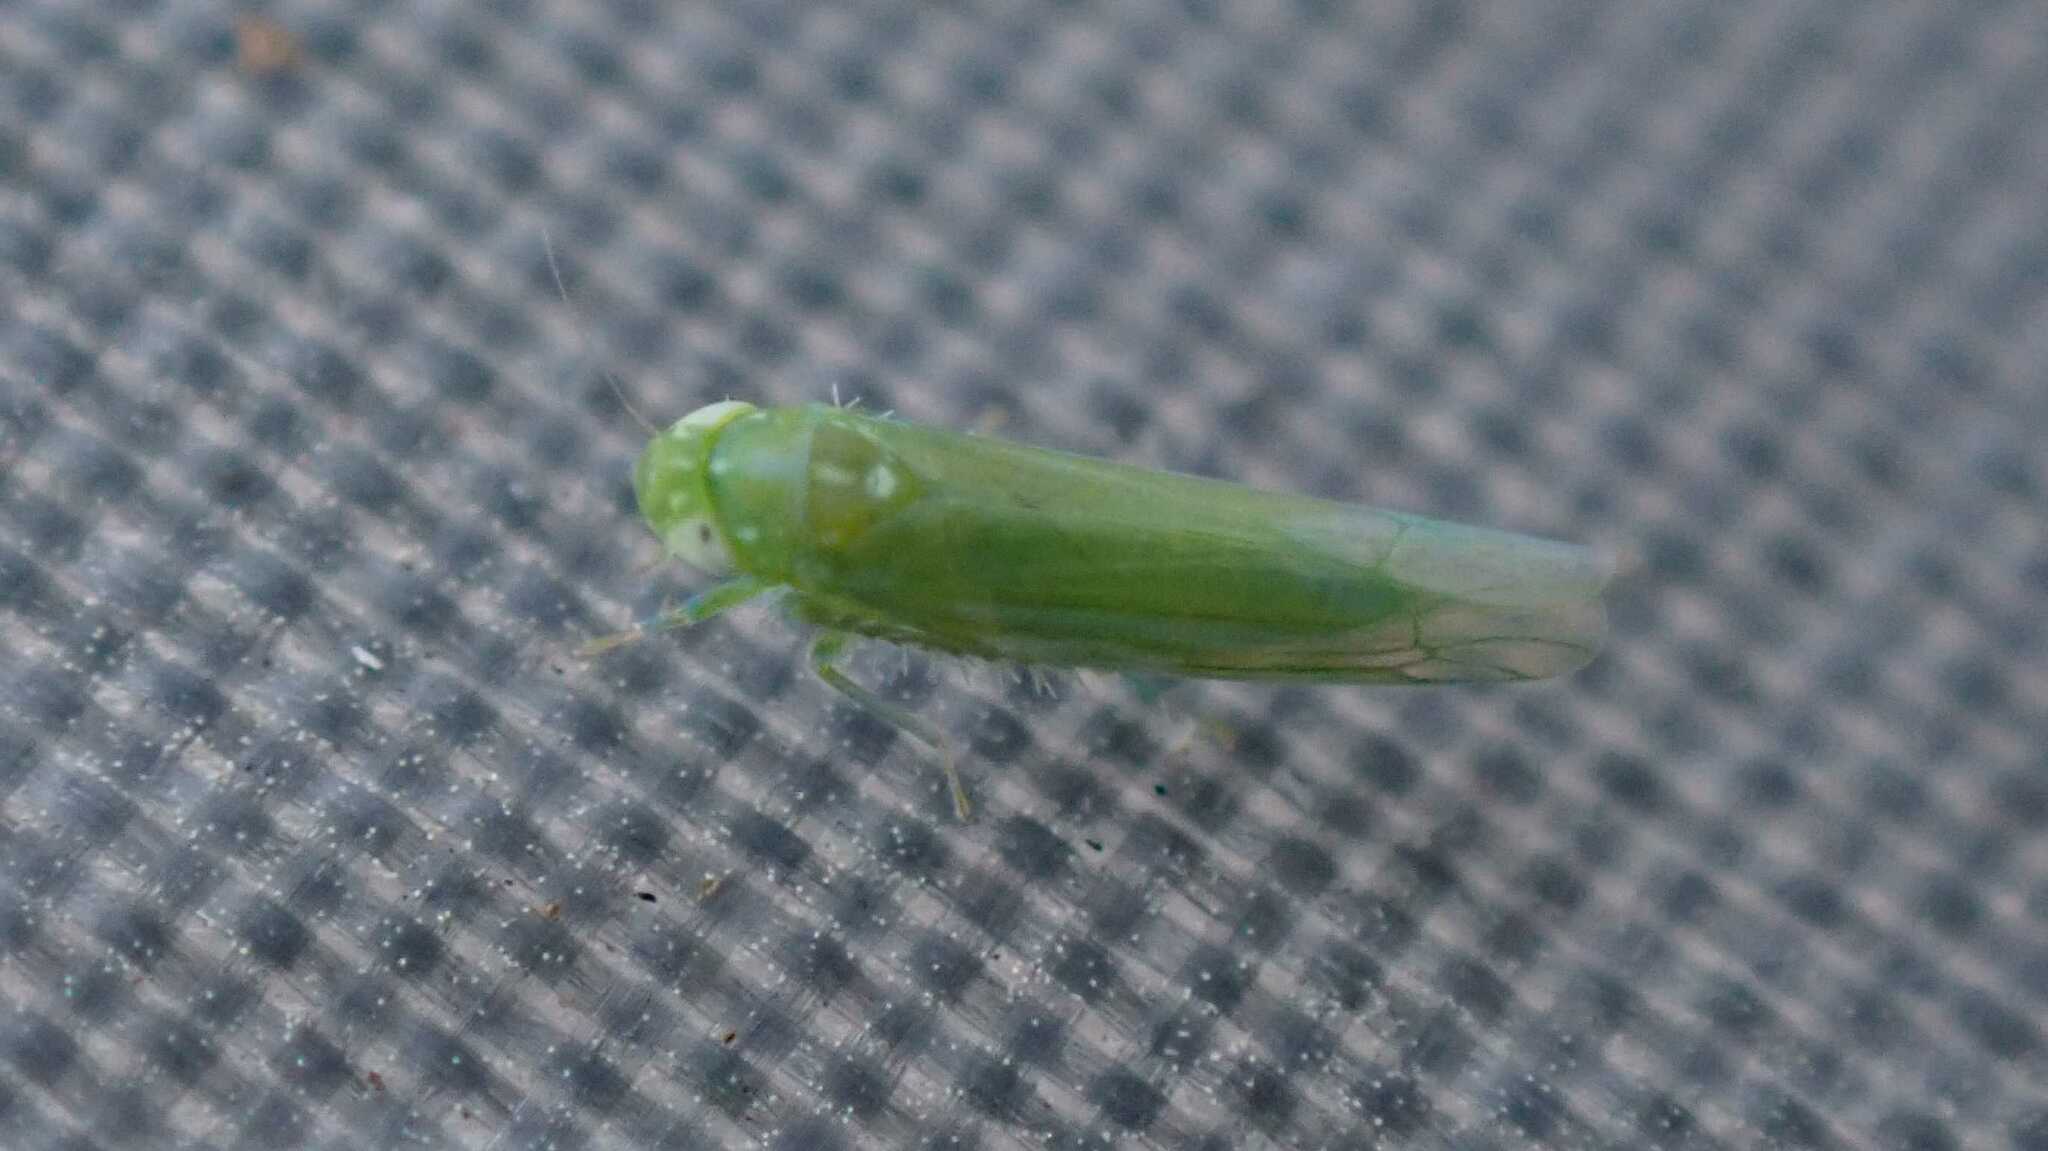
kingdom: Animalia
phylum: Arthropoda
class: Insecta
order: Hemiptera
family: Cicadellidae
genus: Hebata
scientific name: Hebata vitis
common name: The smaller green leafhopper
